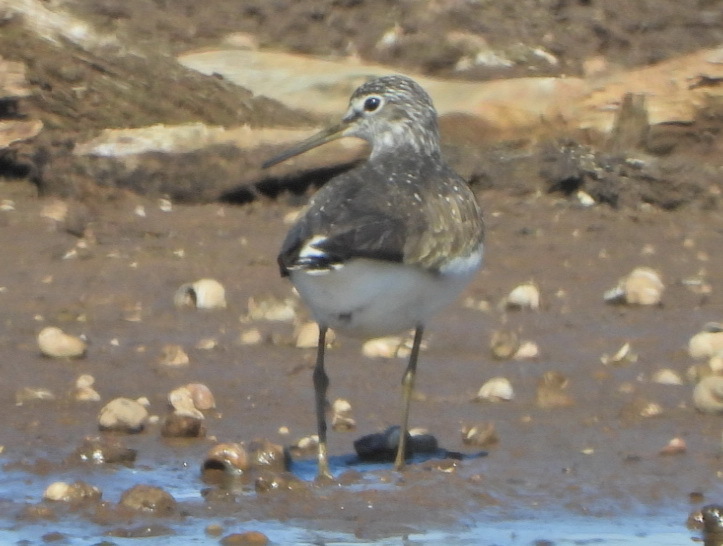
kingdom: Animalia
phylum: Chordata
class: Aves
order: Charadriiformes
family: Scolopacidae
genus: Tringa
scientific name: Tringa ochropus
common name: Green sandpiper
